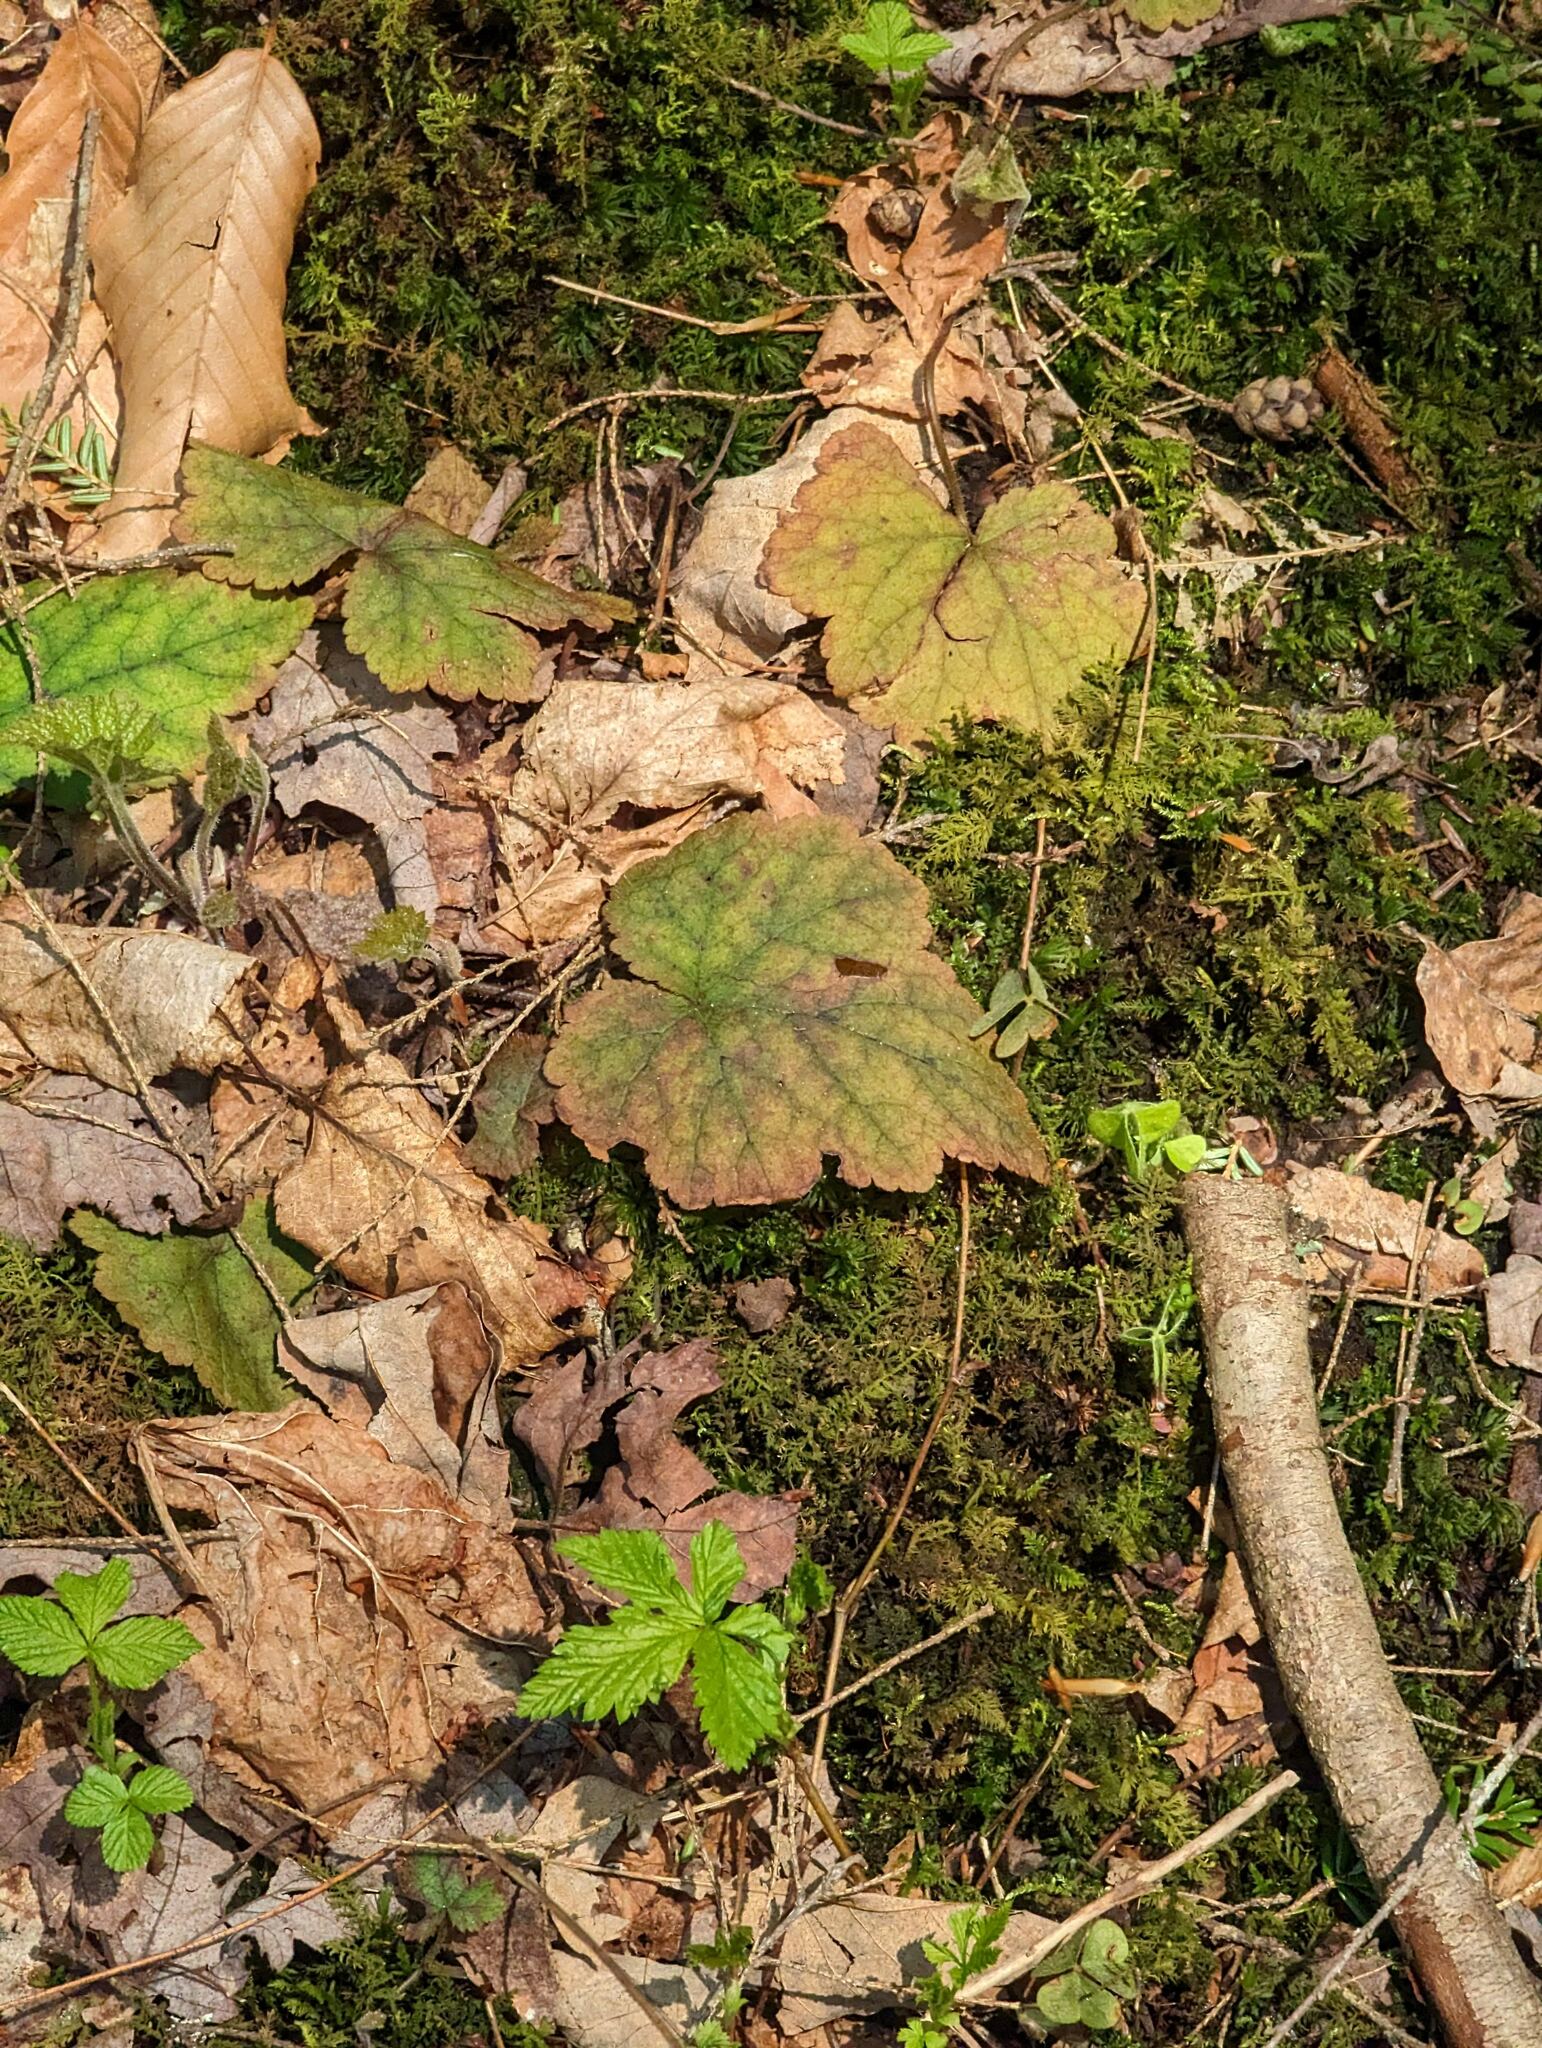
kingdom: Plantae
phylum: Tracheophyta
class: Magnoliopsida
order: Saxifragales
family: Saxifragaceae
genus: Tiarella
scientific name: Tiarella stolonifera
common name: Stoloniferous foamflower
